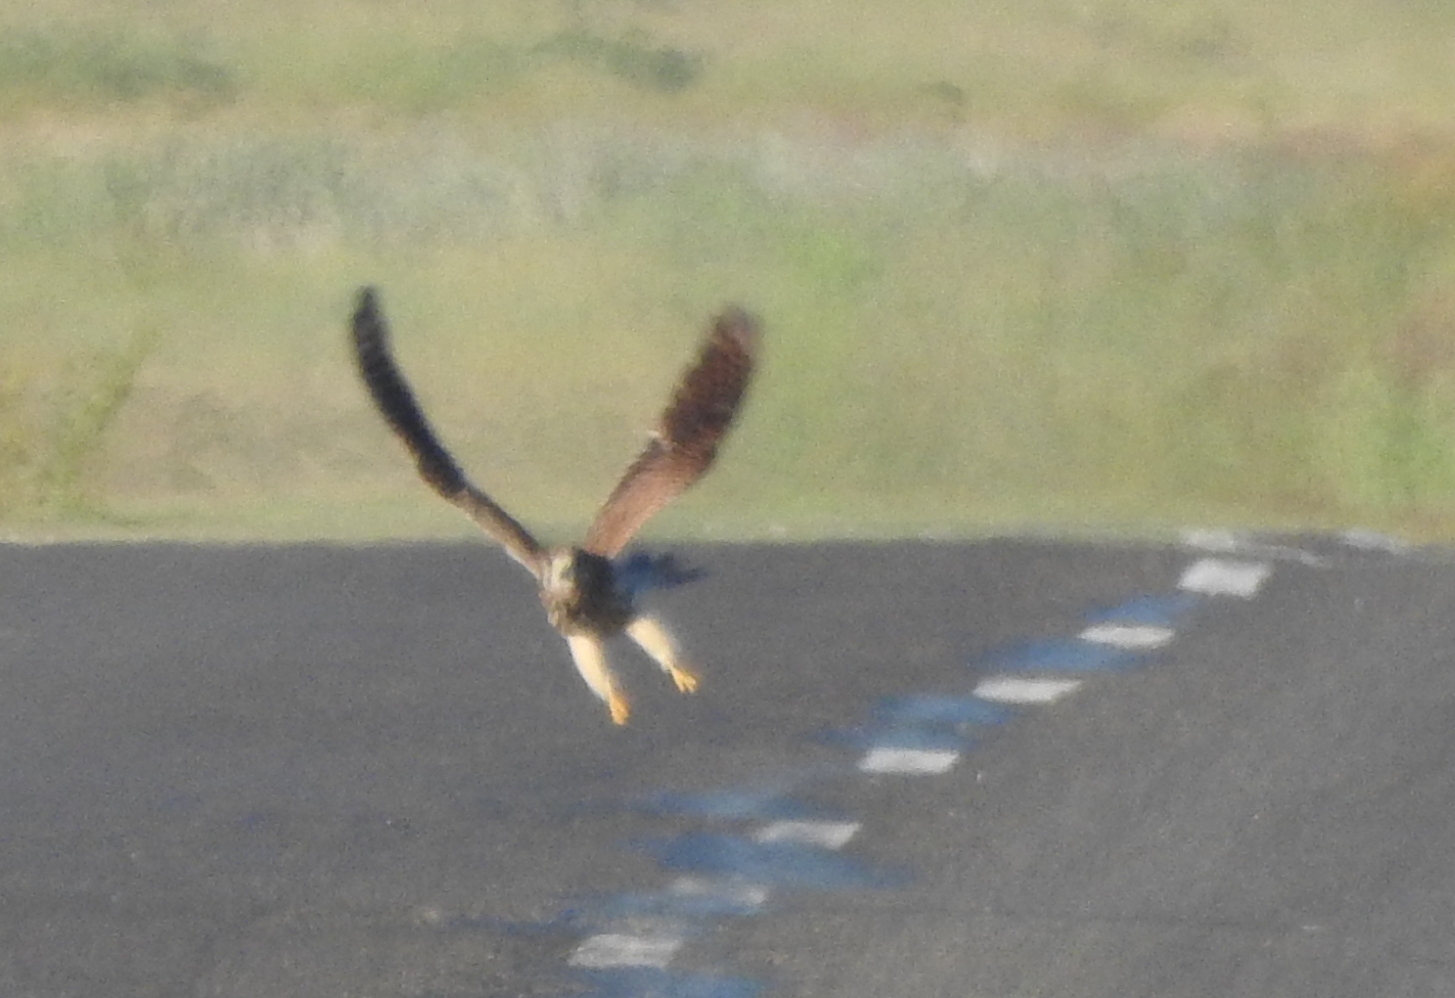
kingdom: Animalia
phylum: Chordata
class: Aves
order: Falconiformes
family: Falconidae
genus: Falco
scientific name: Falco tinnunculus
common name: Common kestrel
